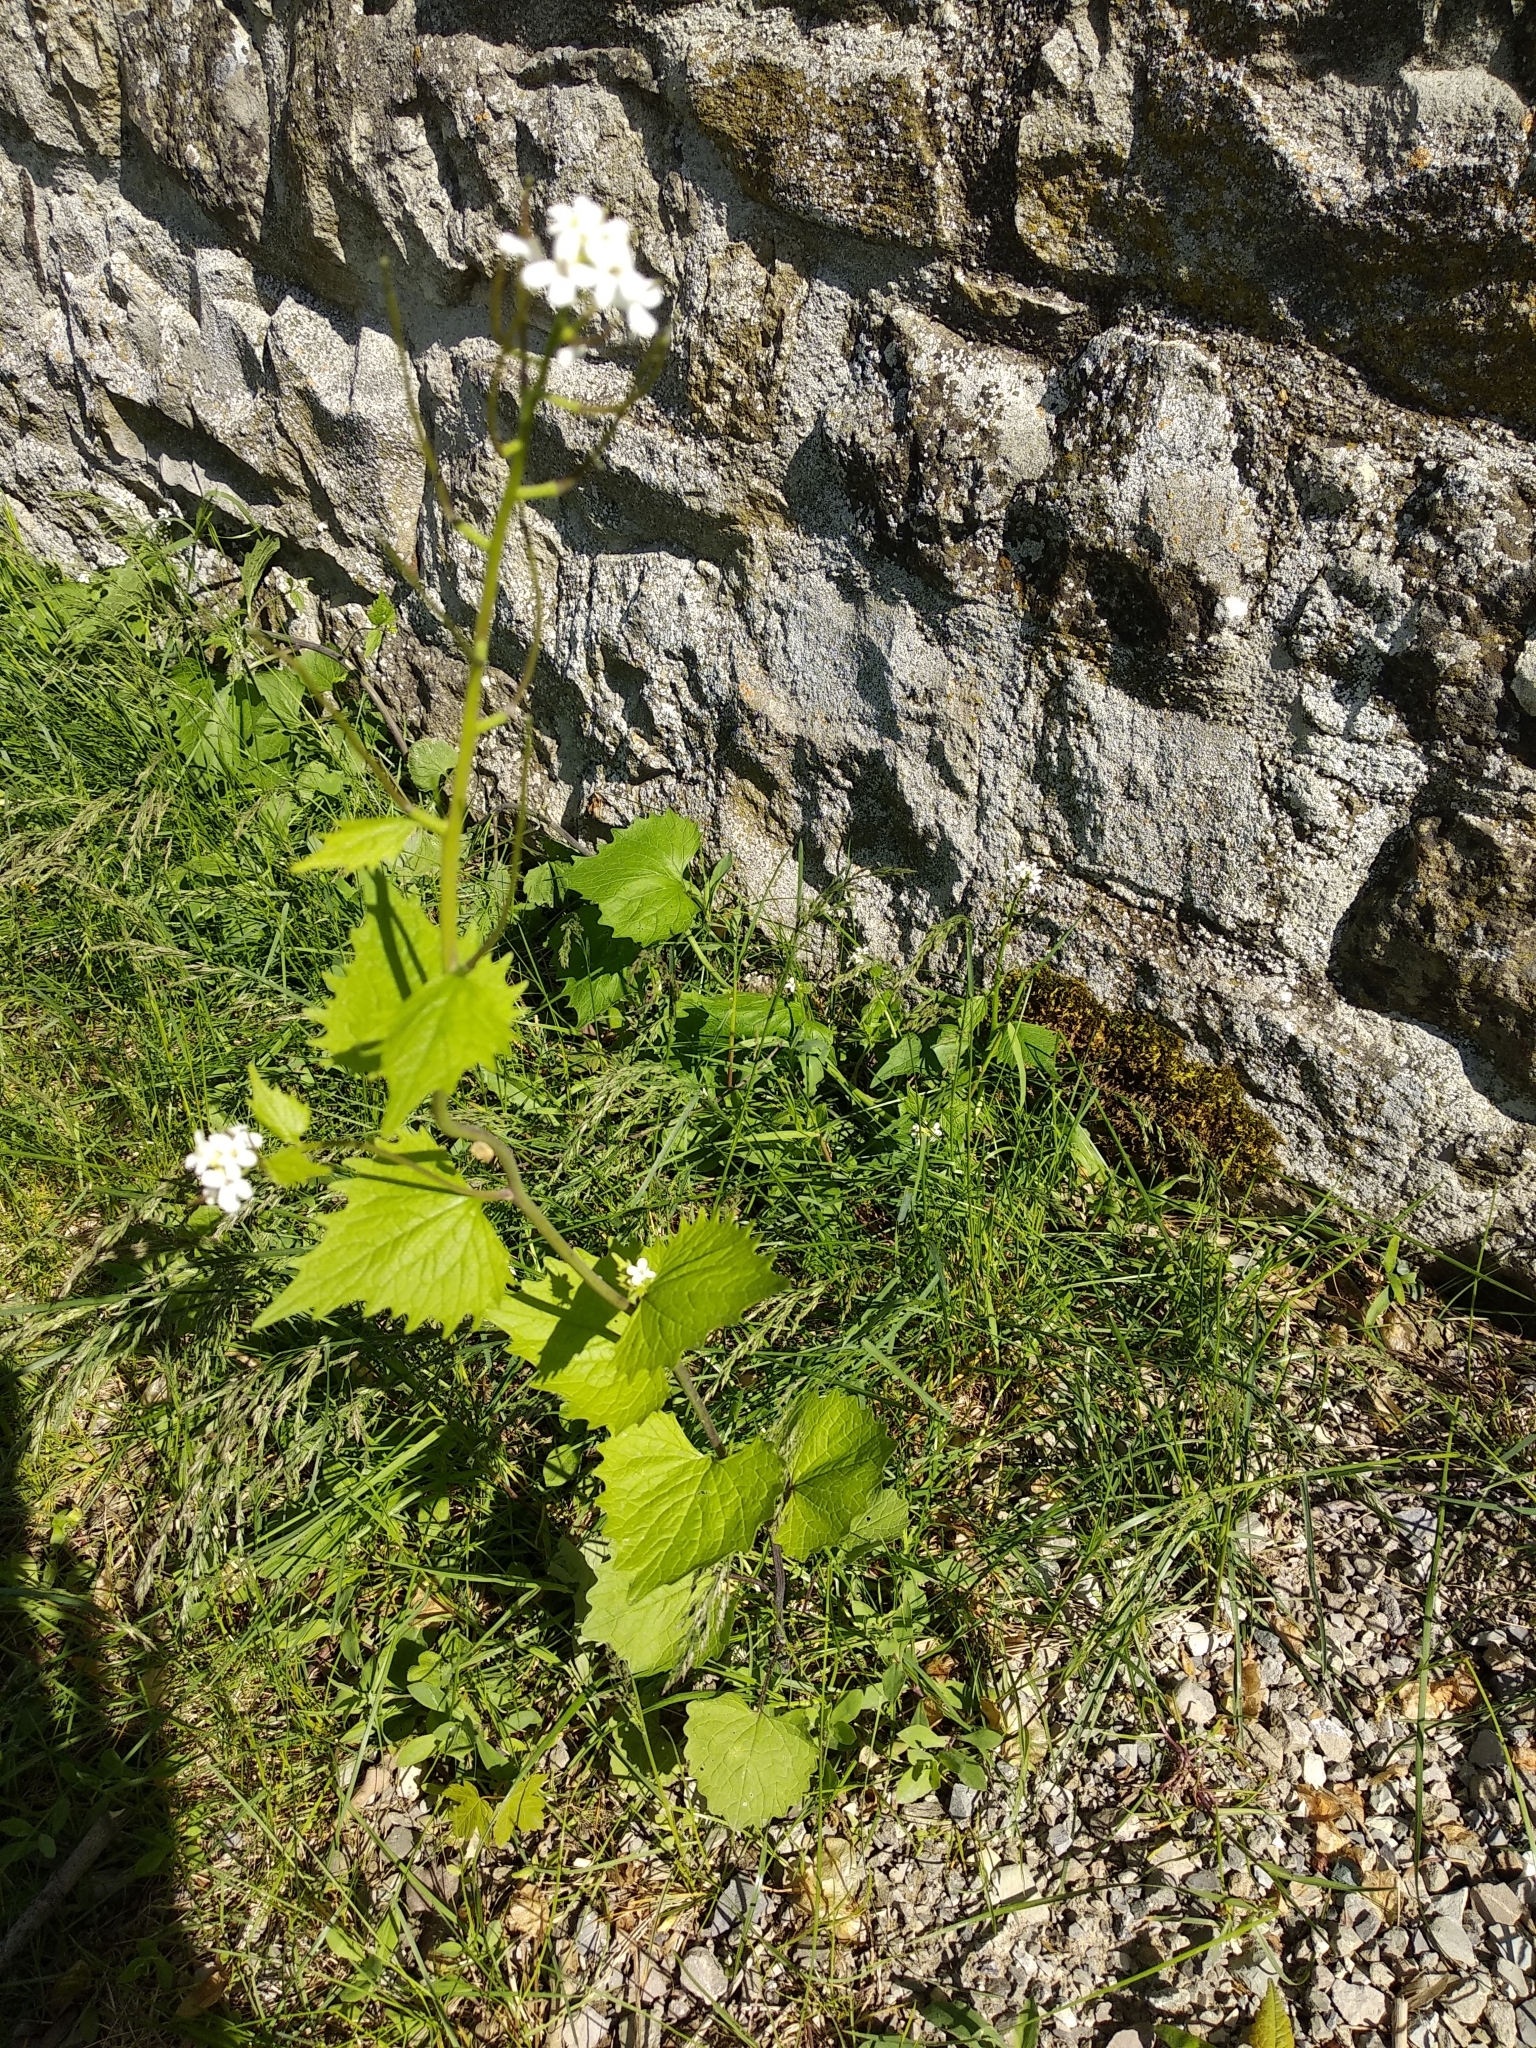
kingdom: Plantae
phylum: Tracheophyta
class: Magnoliopsida
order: Brassicales
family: Brassicaceae
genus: Alliaria
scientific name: Alliaria petiolata
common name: Garlic mustard
